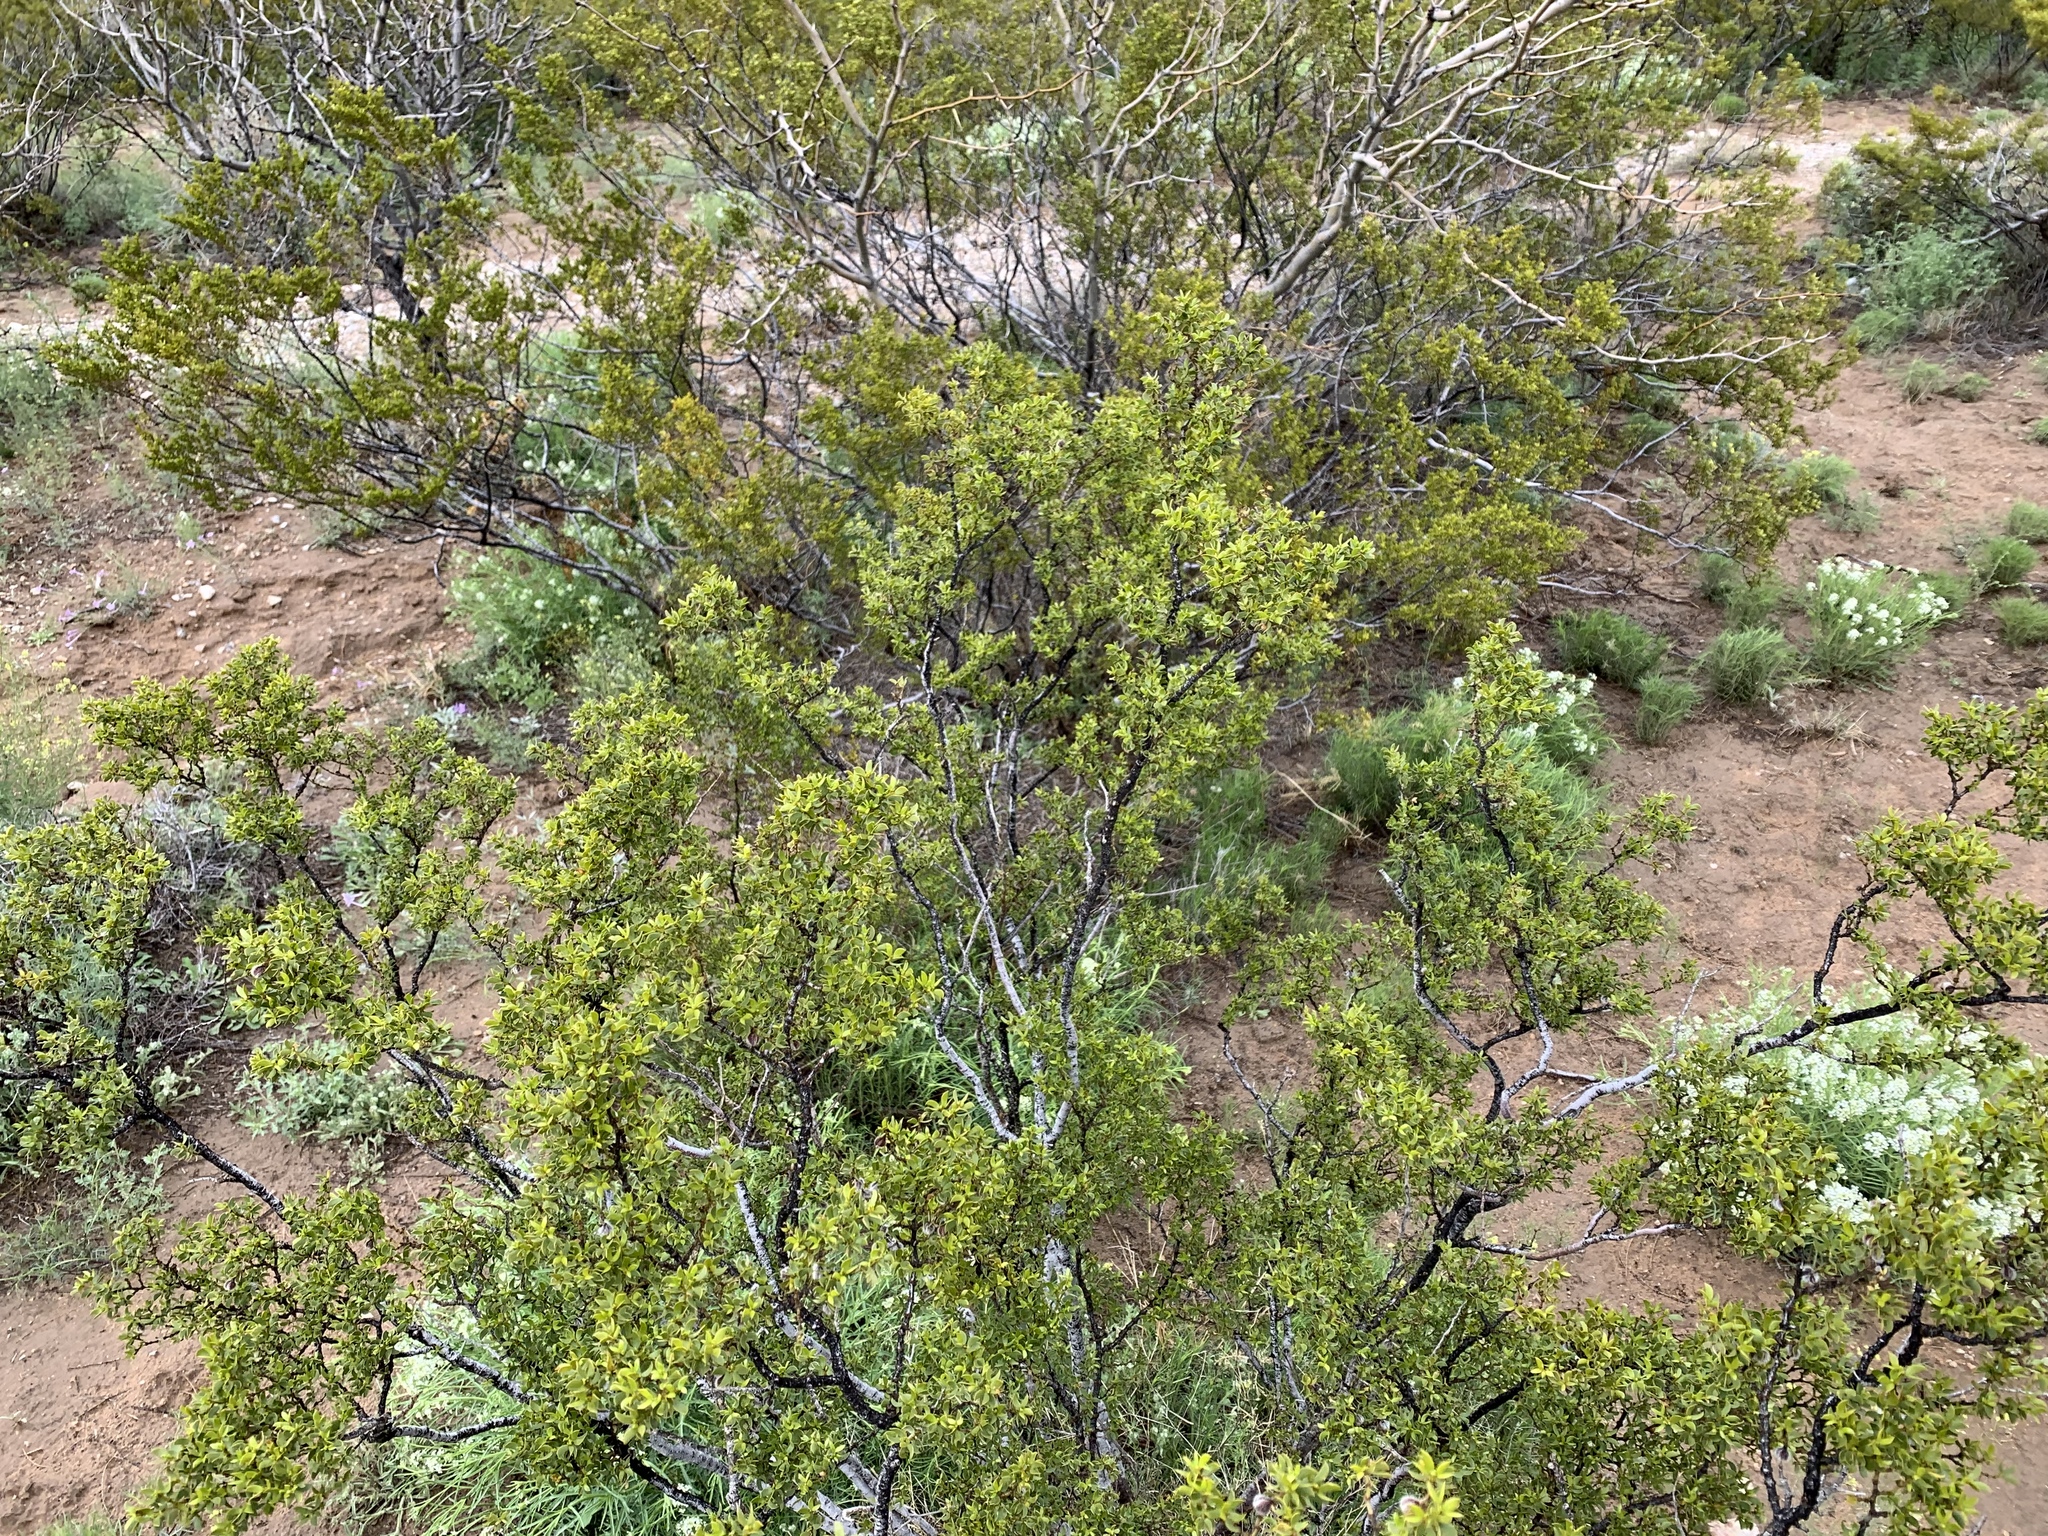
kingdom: Plantae
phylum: Tracheophyta
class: Magnoliopsida
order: Zygophyllales
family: Zygophyllaceae
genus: Larrea
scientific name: Larrea tridentata
